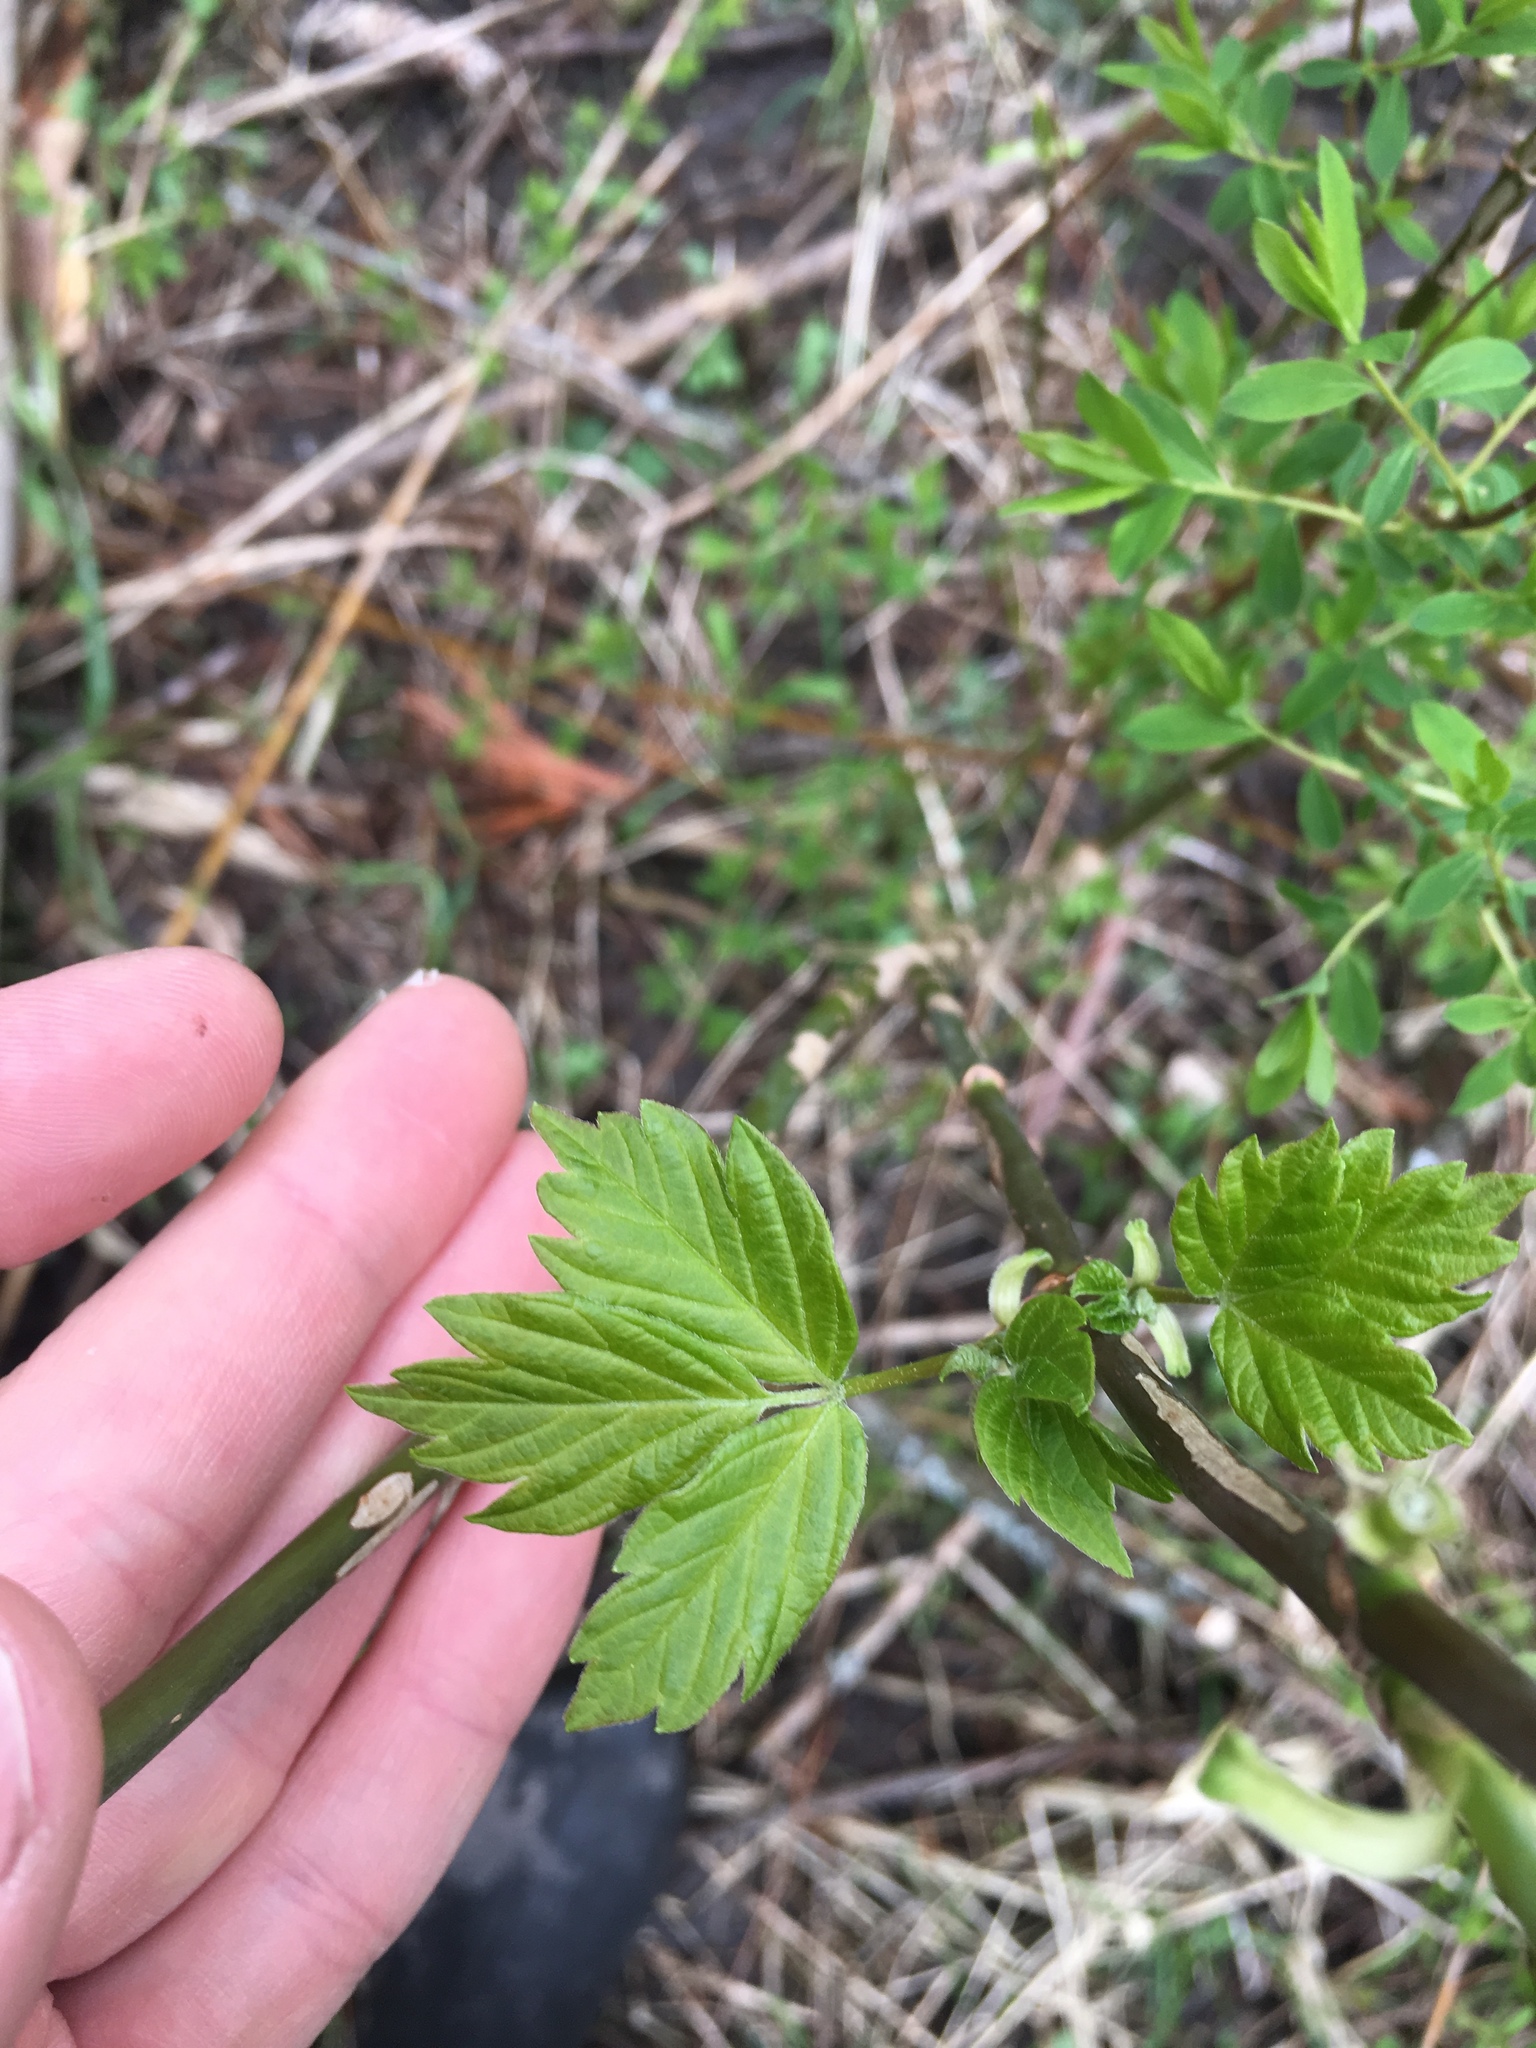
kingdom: Plantae
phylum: Tracheophyta
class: Magnoliopsida
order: Sapindales
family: Sapindaceae
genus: Acer
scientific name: Acer negundo
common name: Ashleaf maple
